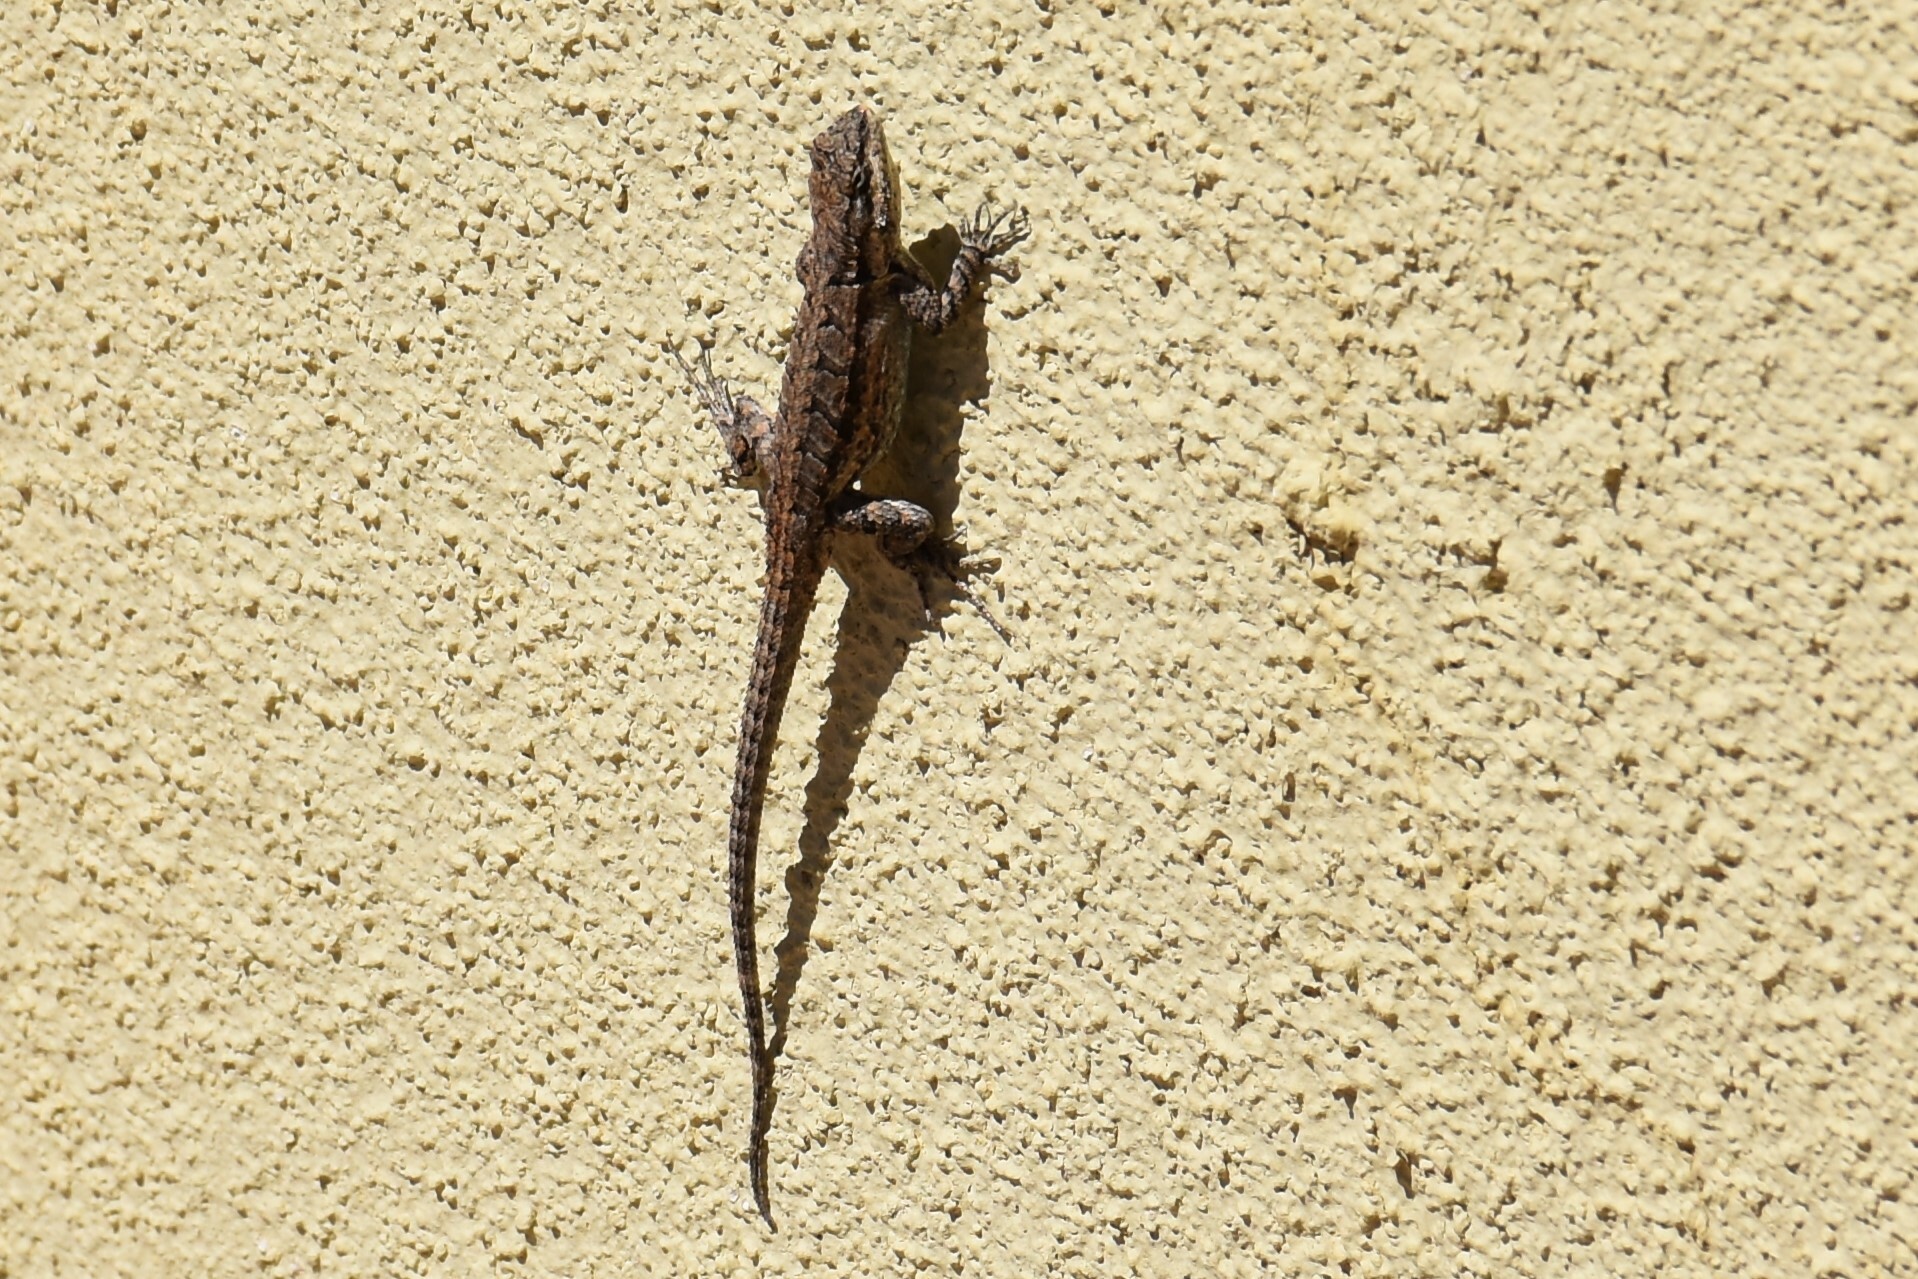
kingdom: Animalia
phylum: Chordata
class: Squamata
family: Phrynosomatidae
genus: Urosaurus
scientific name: Urosaurus ornatus
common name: Ornate tree lizard
